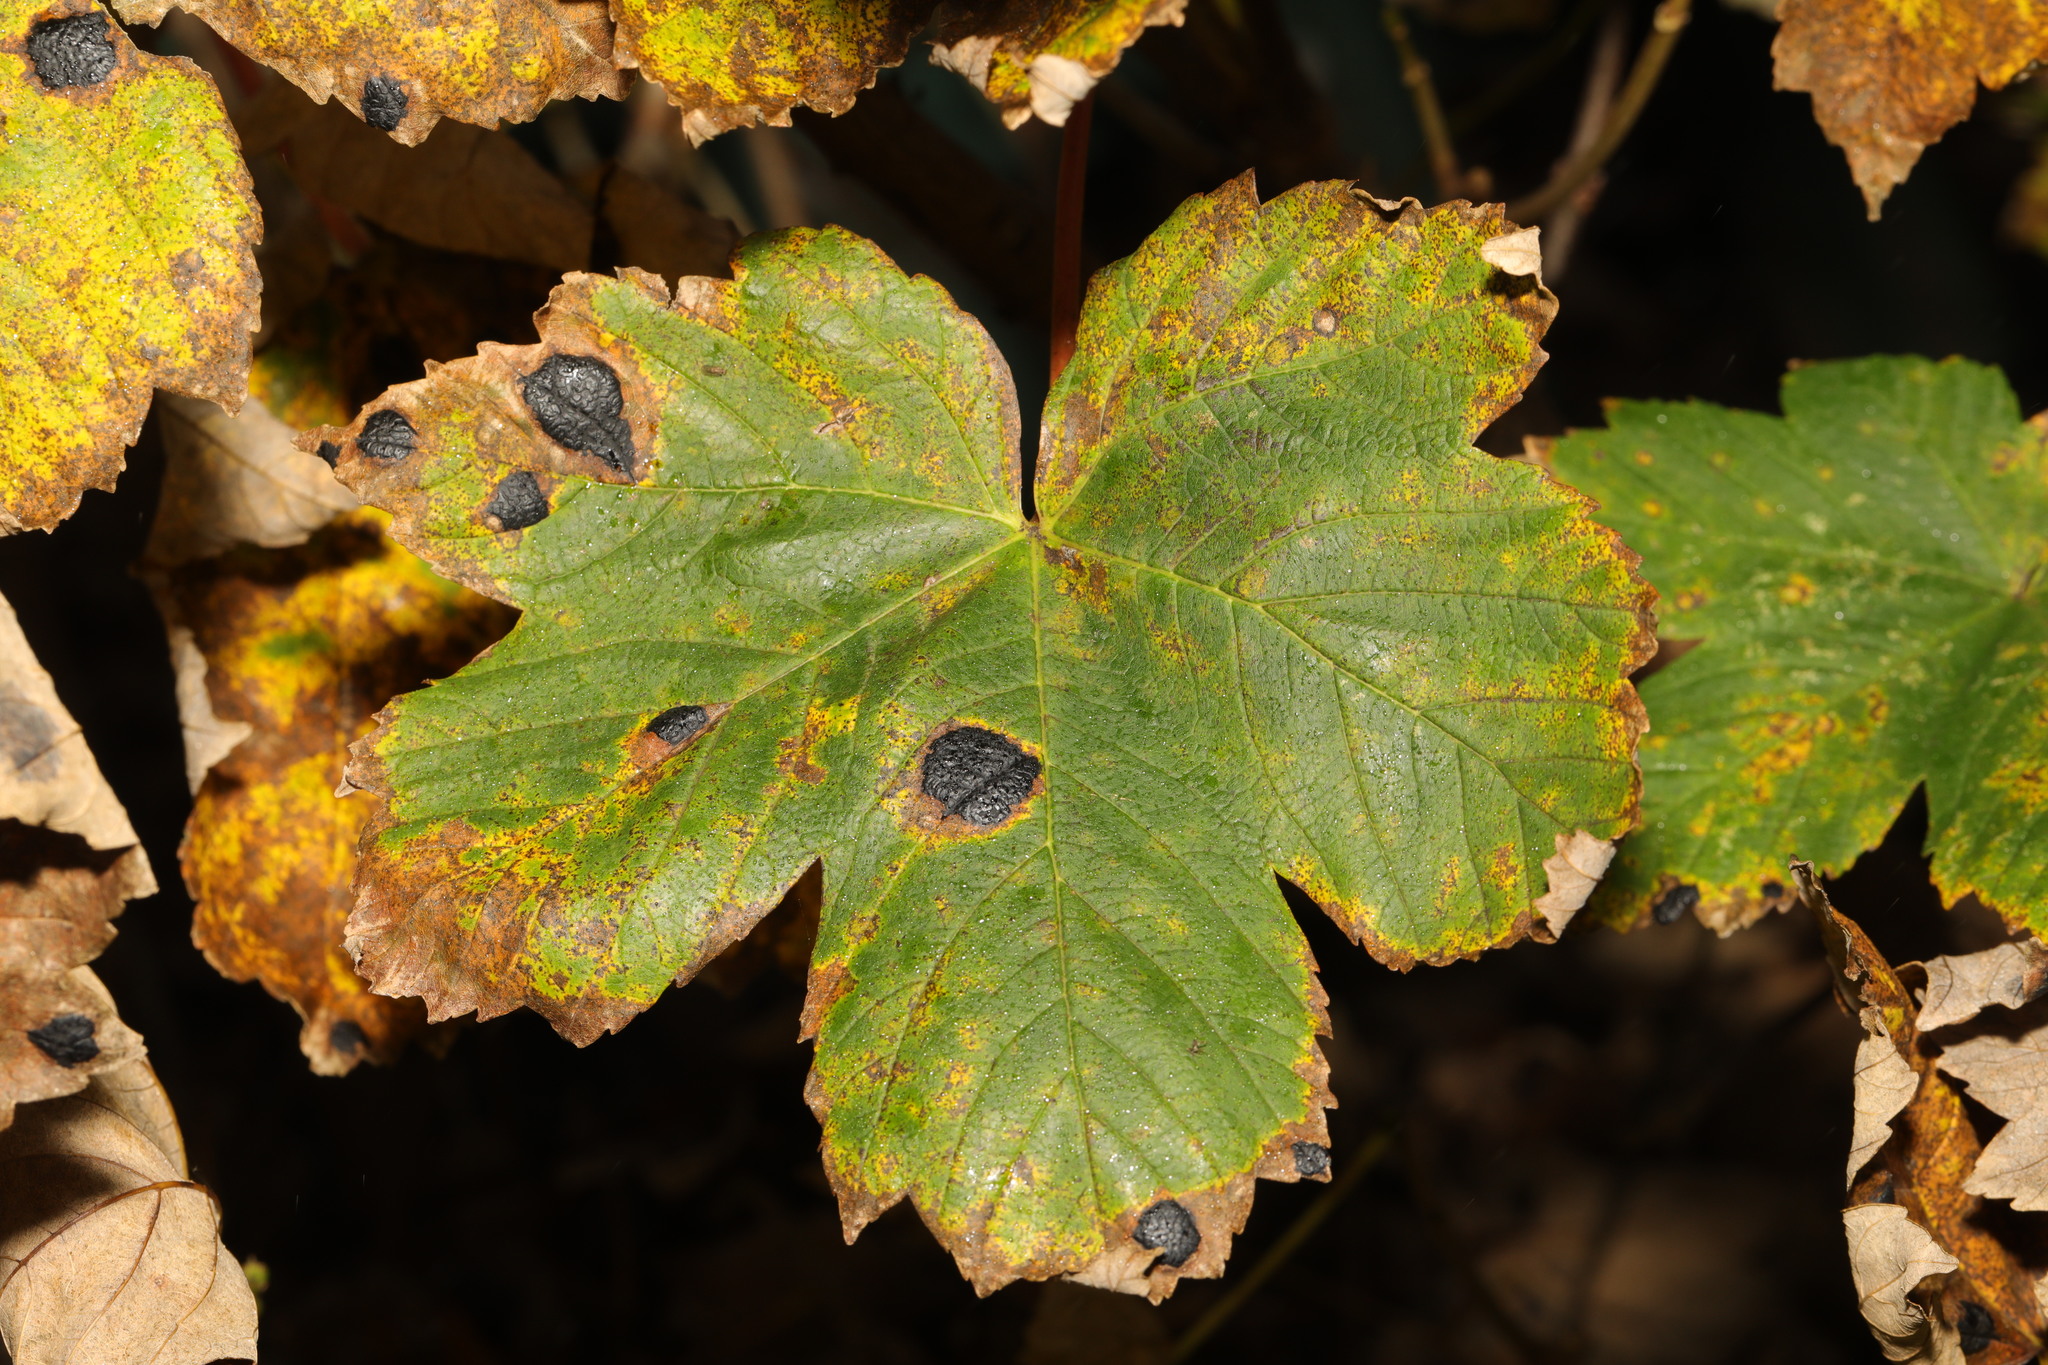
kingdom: Plantae
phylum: Tracheophyta
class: Magnoliopsida
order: Sapindales
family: Sapindaceae
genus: Acer
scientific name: Acer pseudoplatanus
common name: Sycamore
